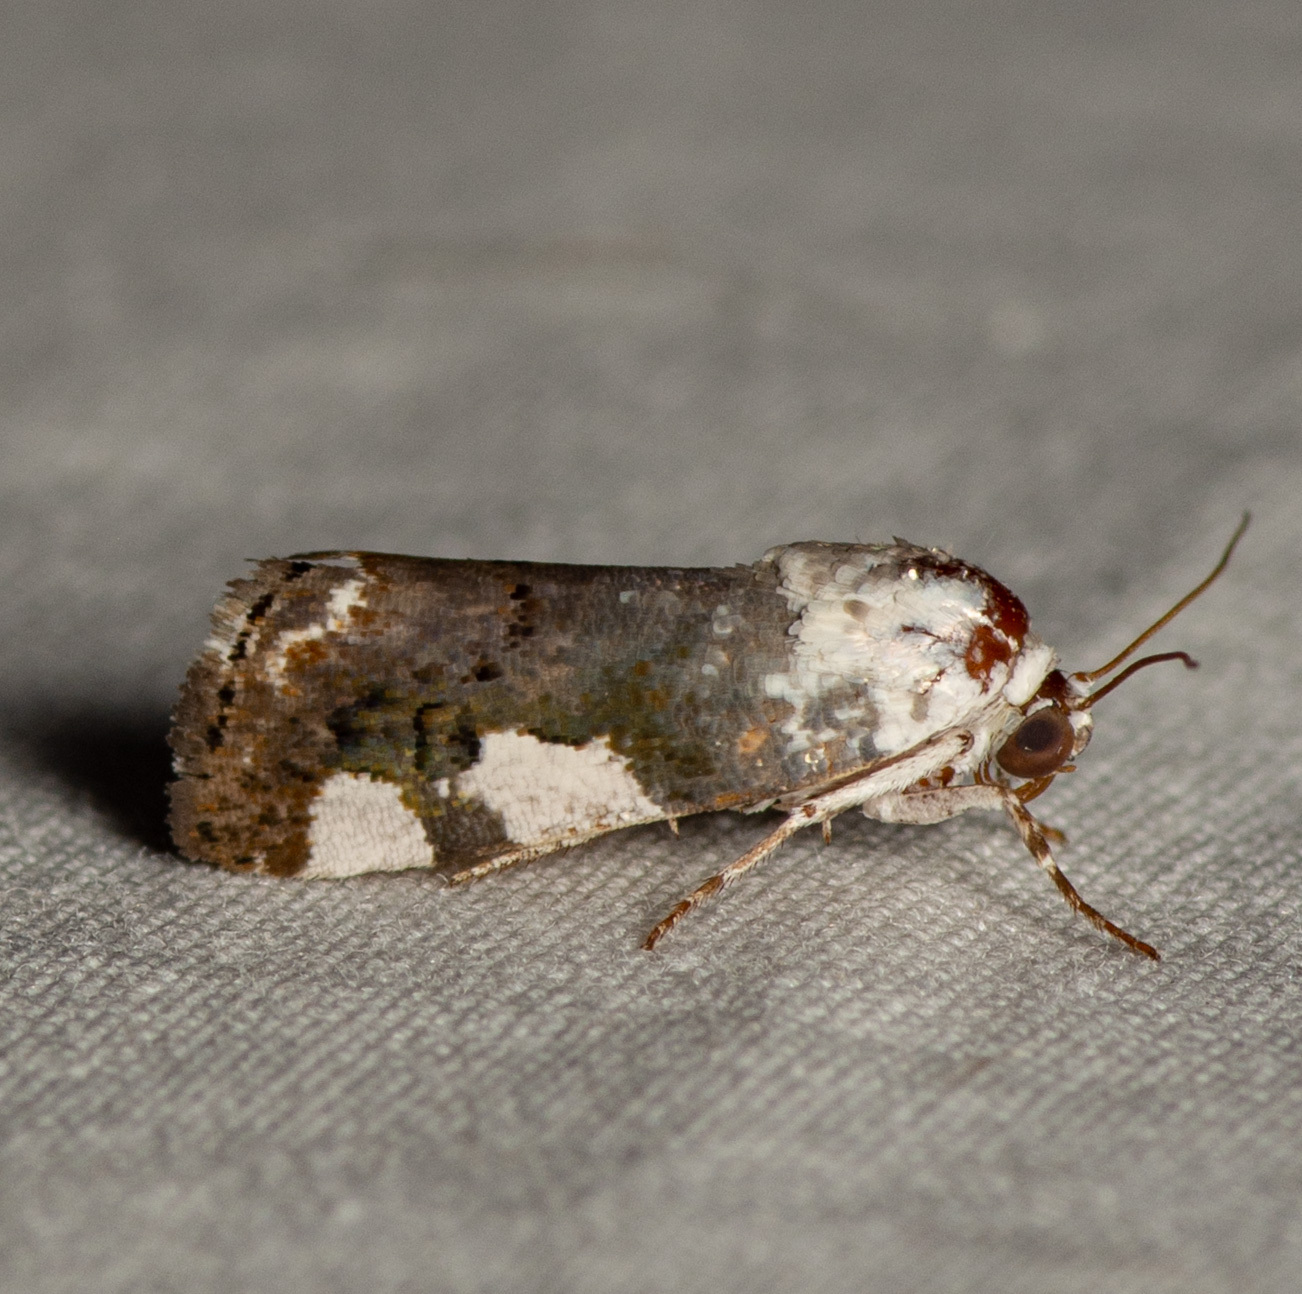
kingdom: Animalia
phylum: Arthropoda
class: Insecta
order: Lepidoptera
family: Noctuidae
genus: Acontia
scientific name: Acontia quadriplaga
